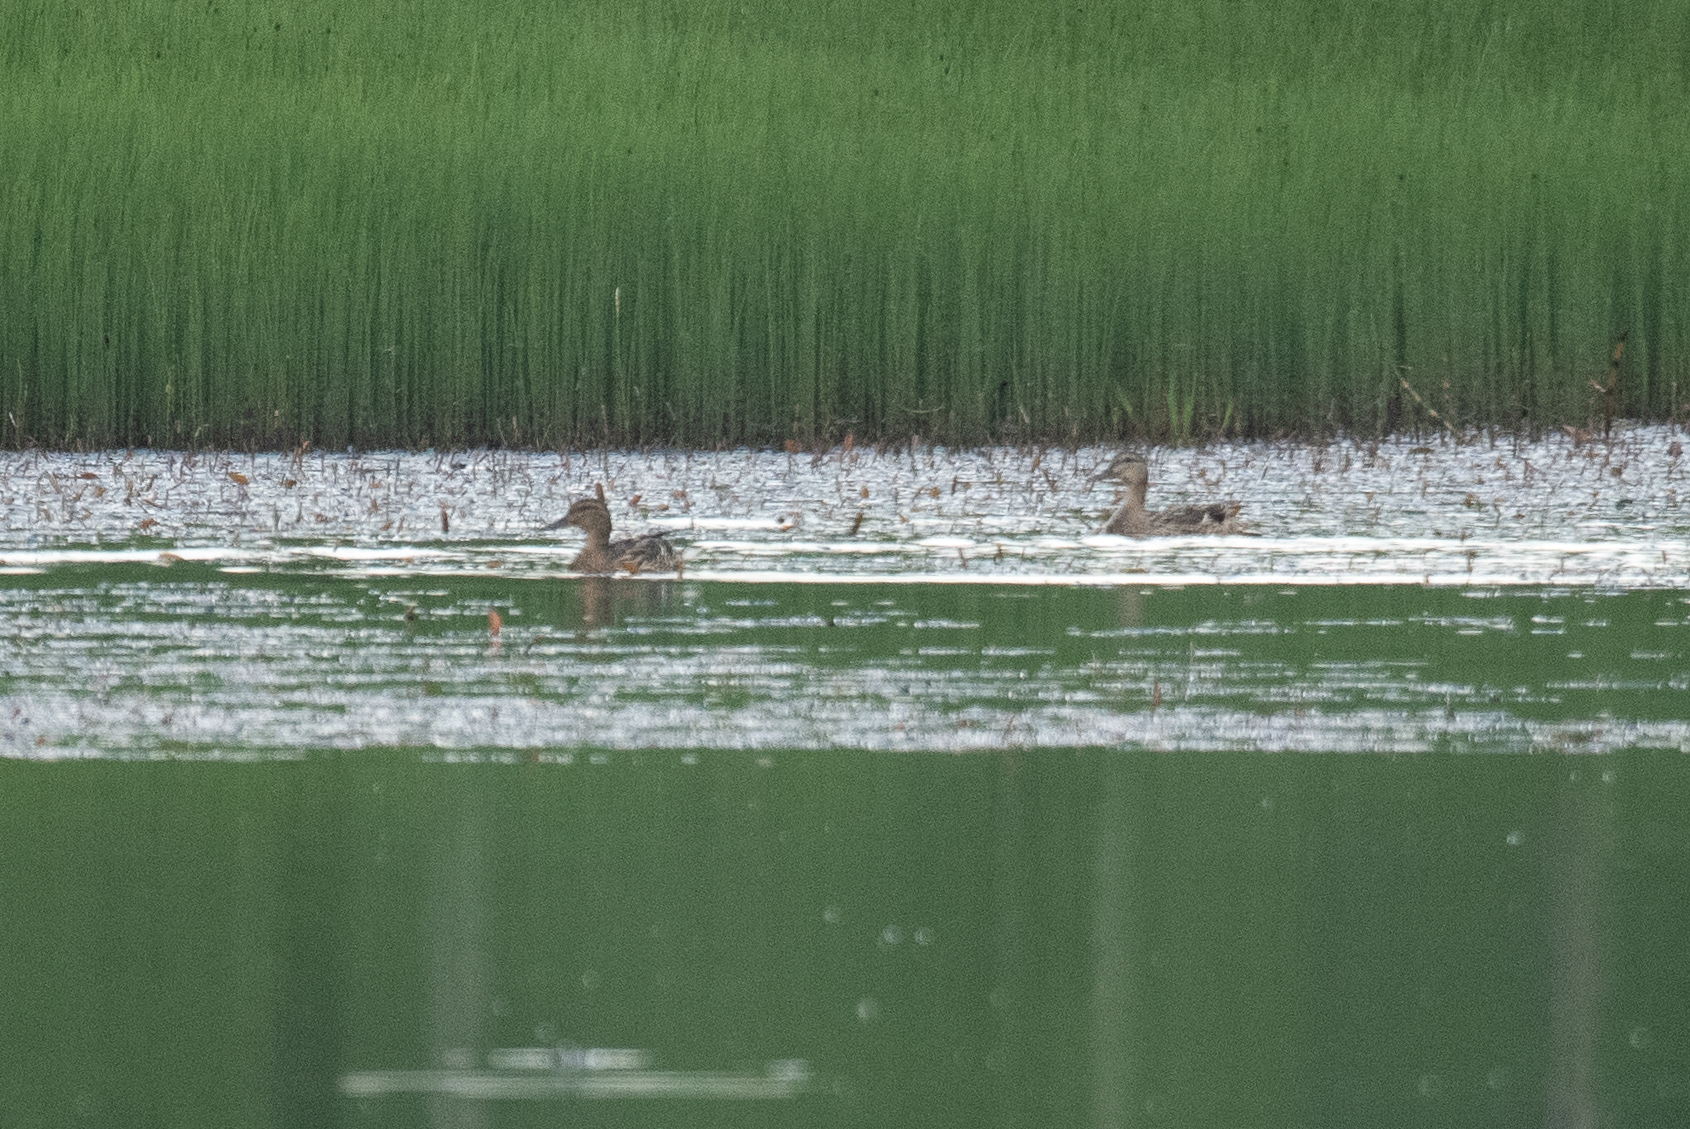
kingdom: Animalia
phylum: Chordata
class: Aves
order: Anseriformes
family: Anatidae
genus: Anas
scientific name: Anas platyrhynchos
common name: Mallard
